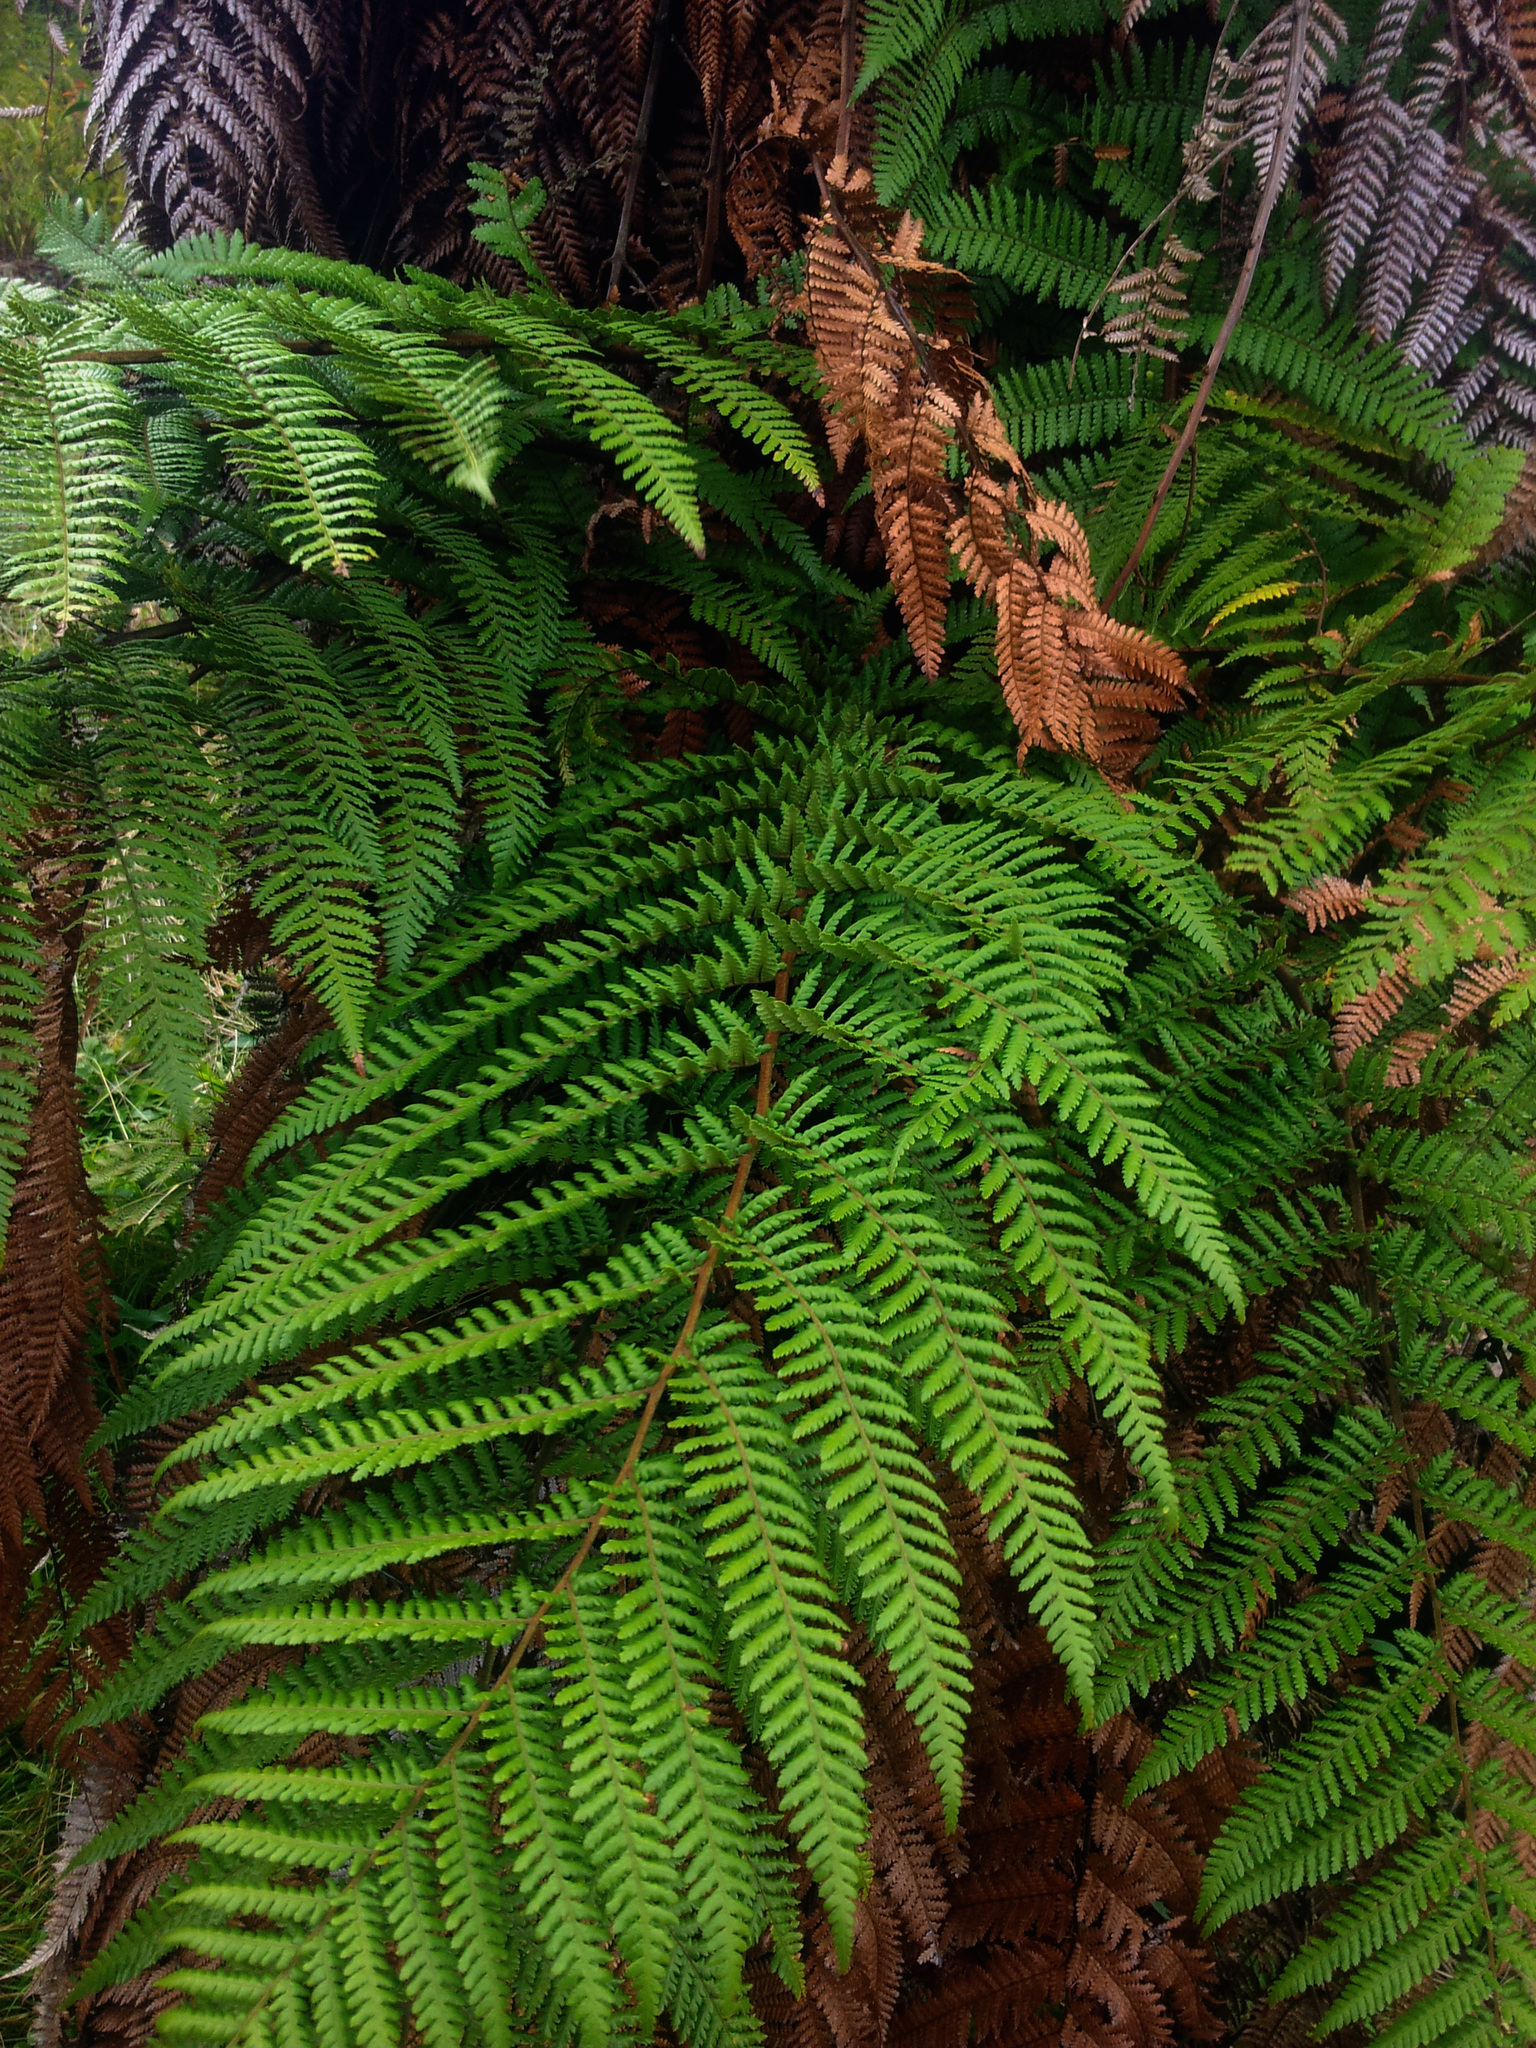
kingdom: Plantae
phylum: Tracheophyta
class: Polypodiopsida
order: Cyatheales
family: Dicksoniaceae
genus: Dicksonia
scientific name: Dicksonia squarrosa
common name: Hard treefern
